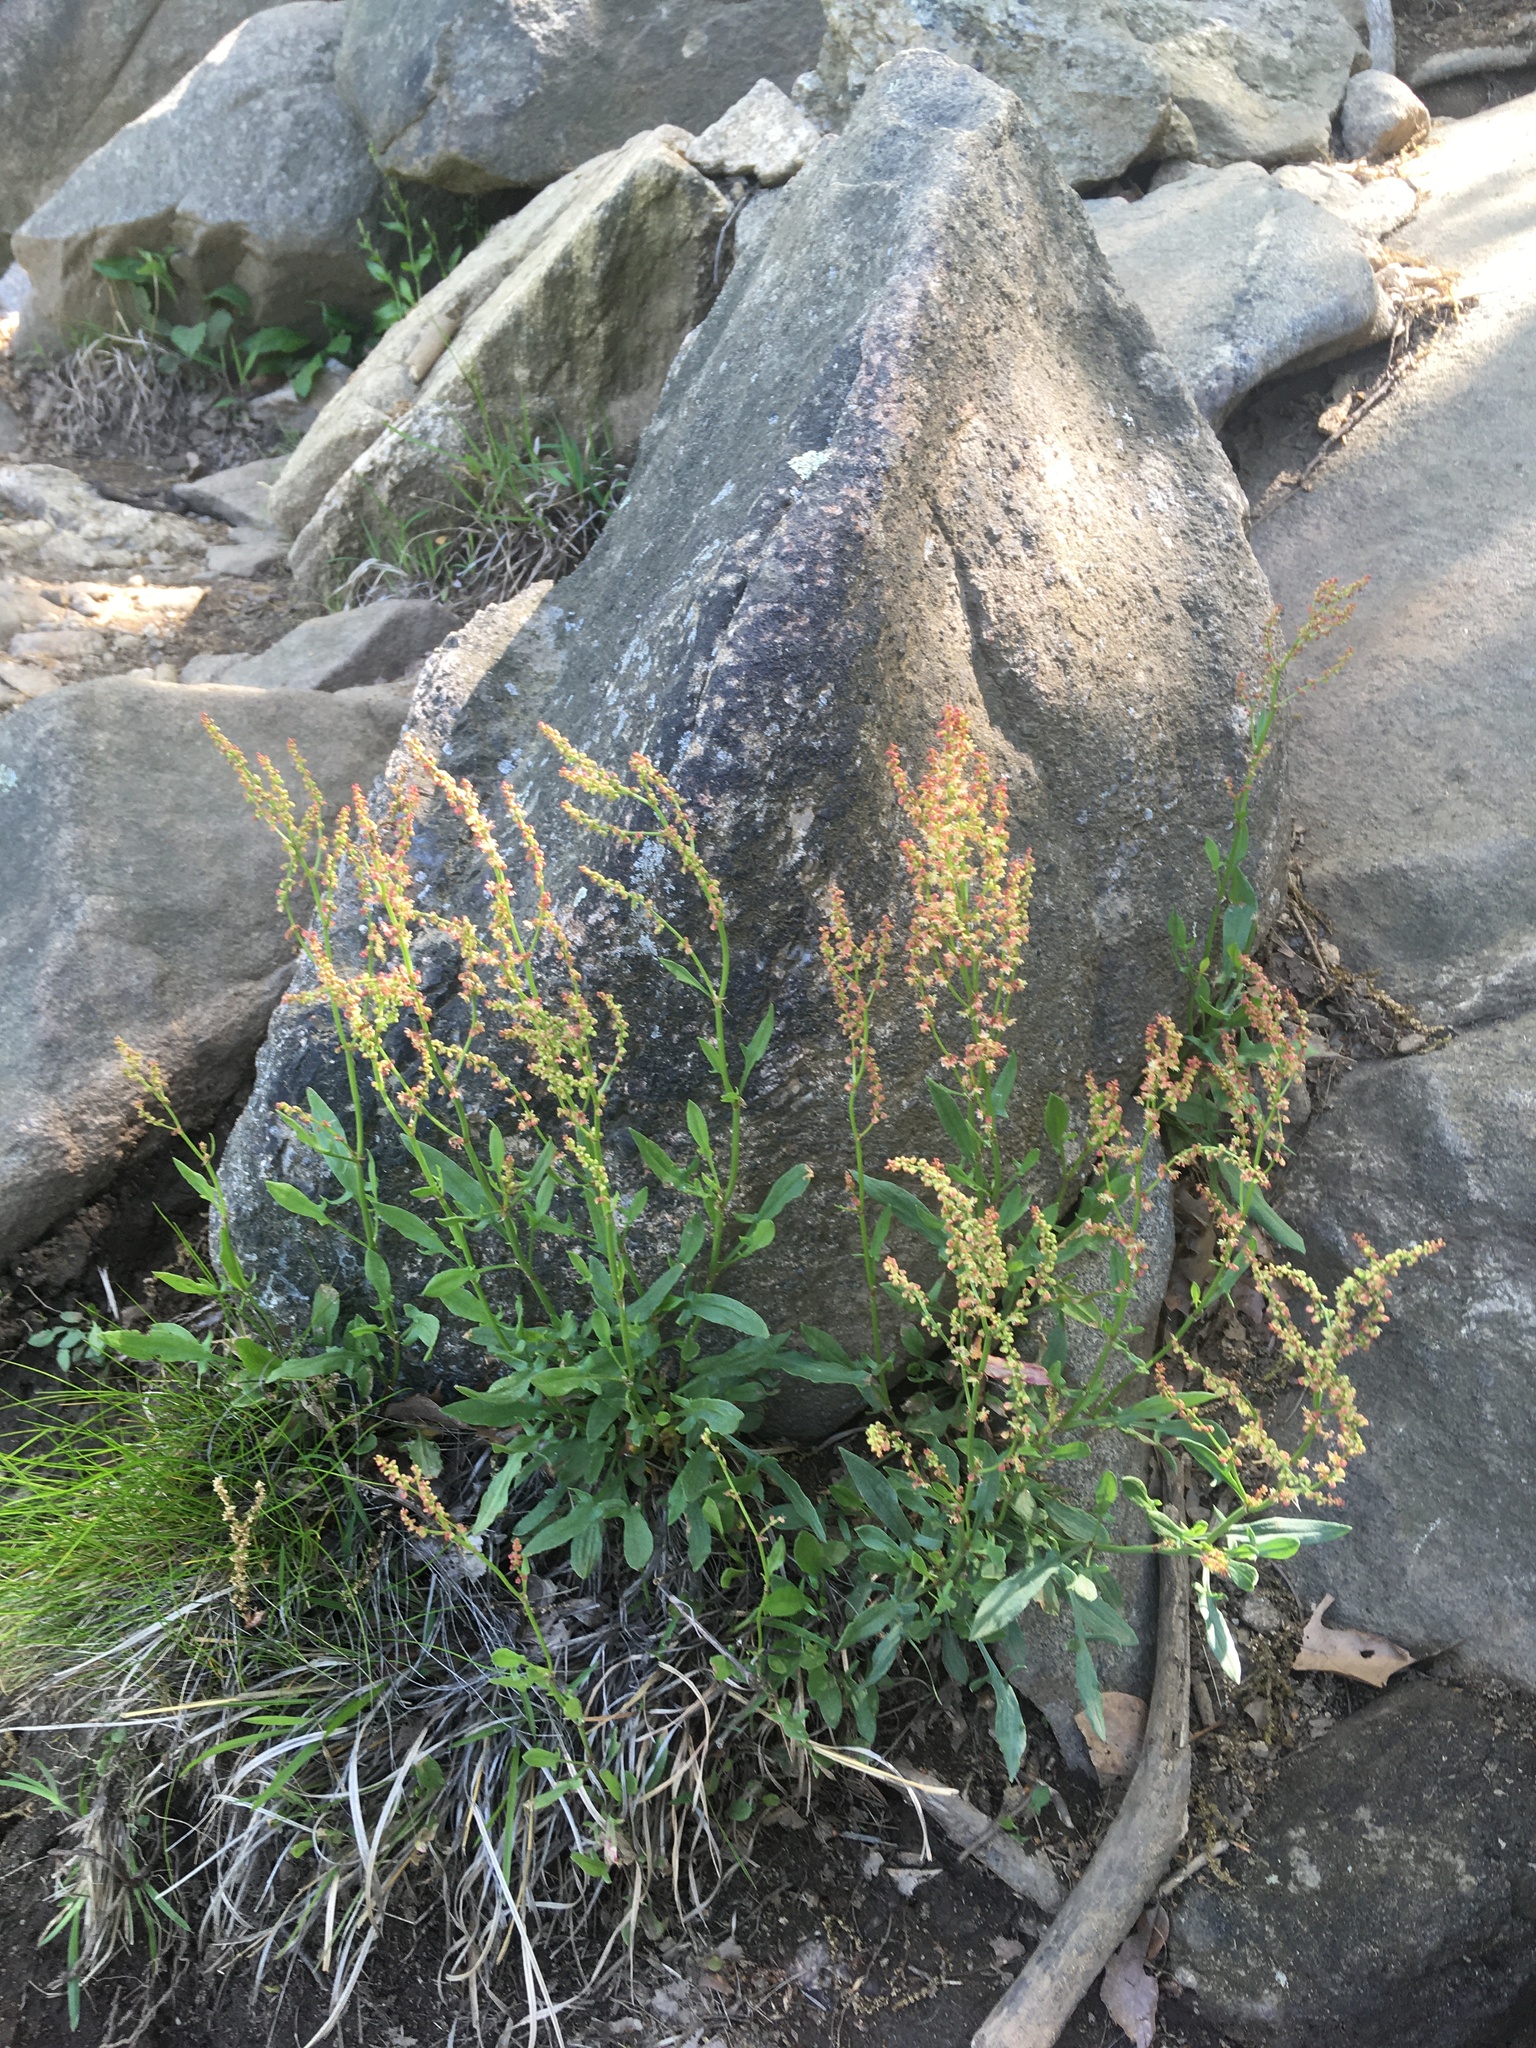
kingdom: Plantae
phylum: Tracheophyta
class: Magnoliopsida
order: Caryophyllales
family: Polygonaceae
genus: Rumex
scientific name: Rumex acetosella
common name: Common sheep sorrel
